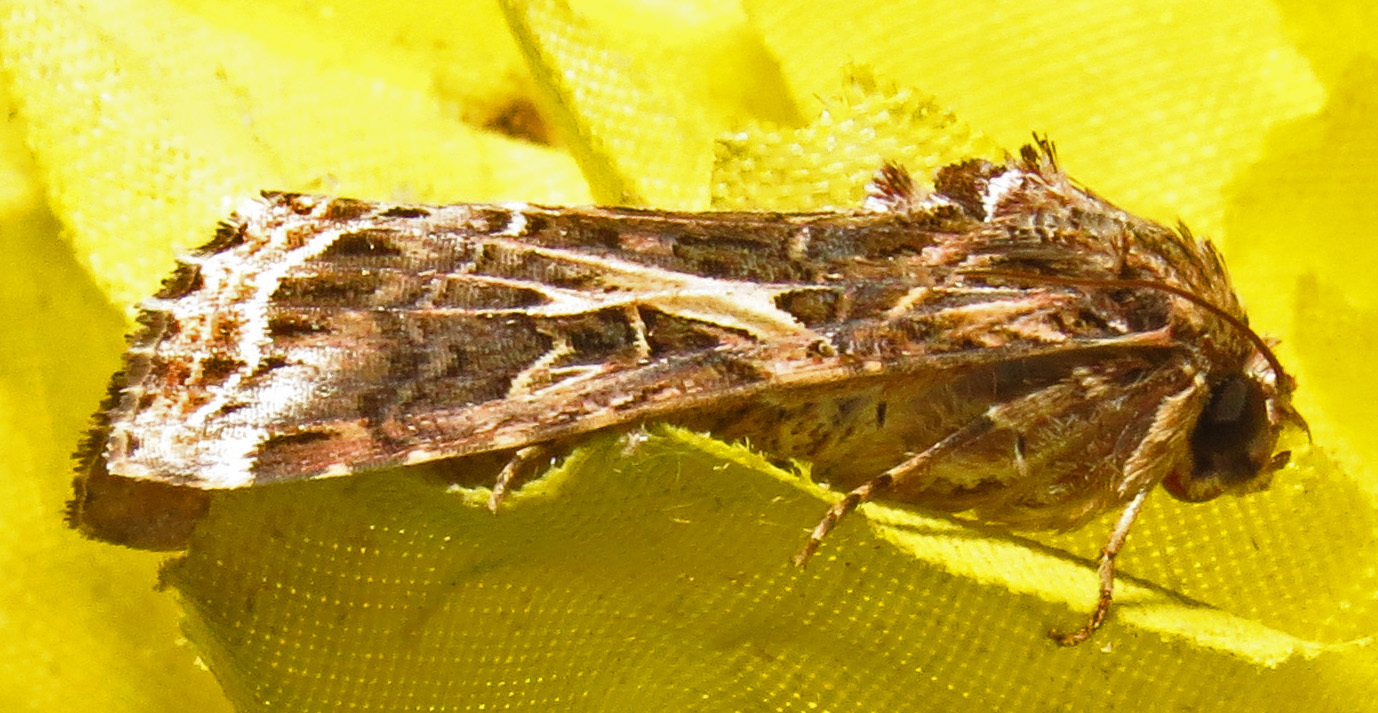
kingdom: Animalia
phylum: Arthropoda
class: Insecta
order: Lepidoptera
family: Noctuidae
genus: Spodoptera
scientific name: Spodoptera ornithogalli
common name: Yellow-striped armyworm
